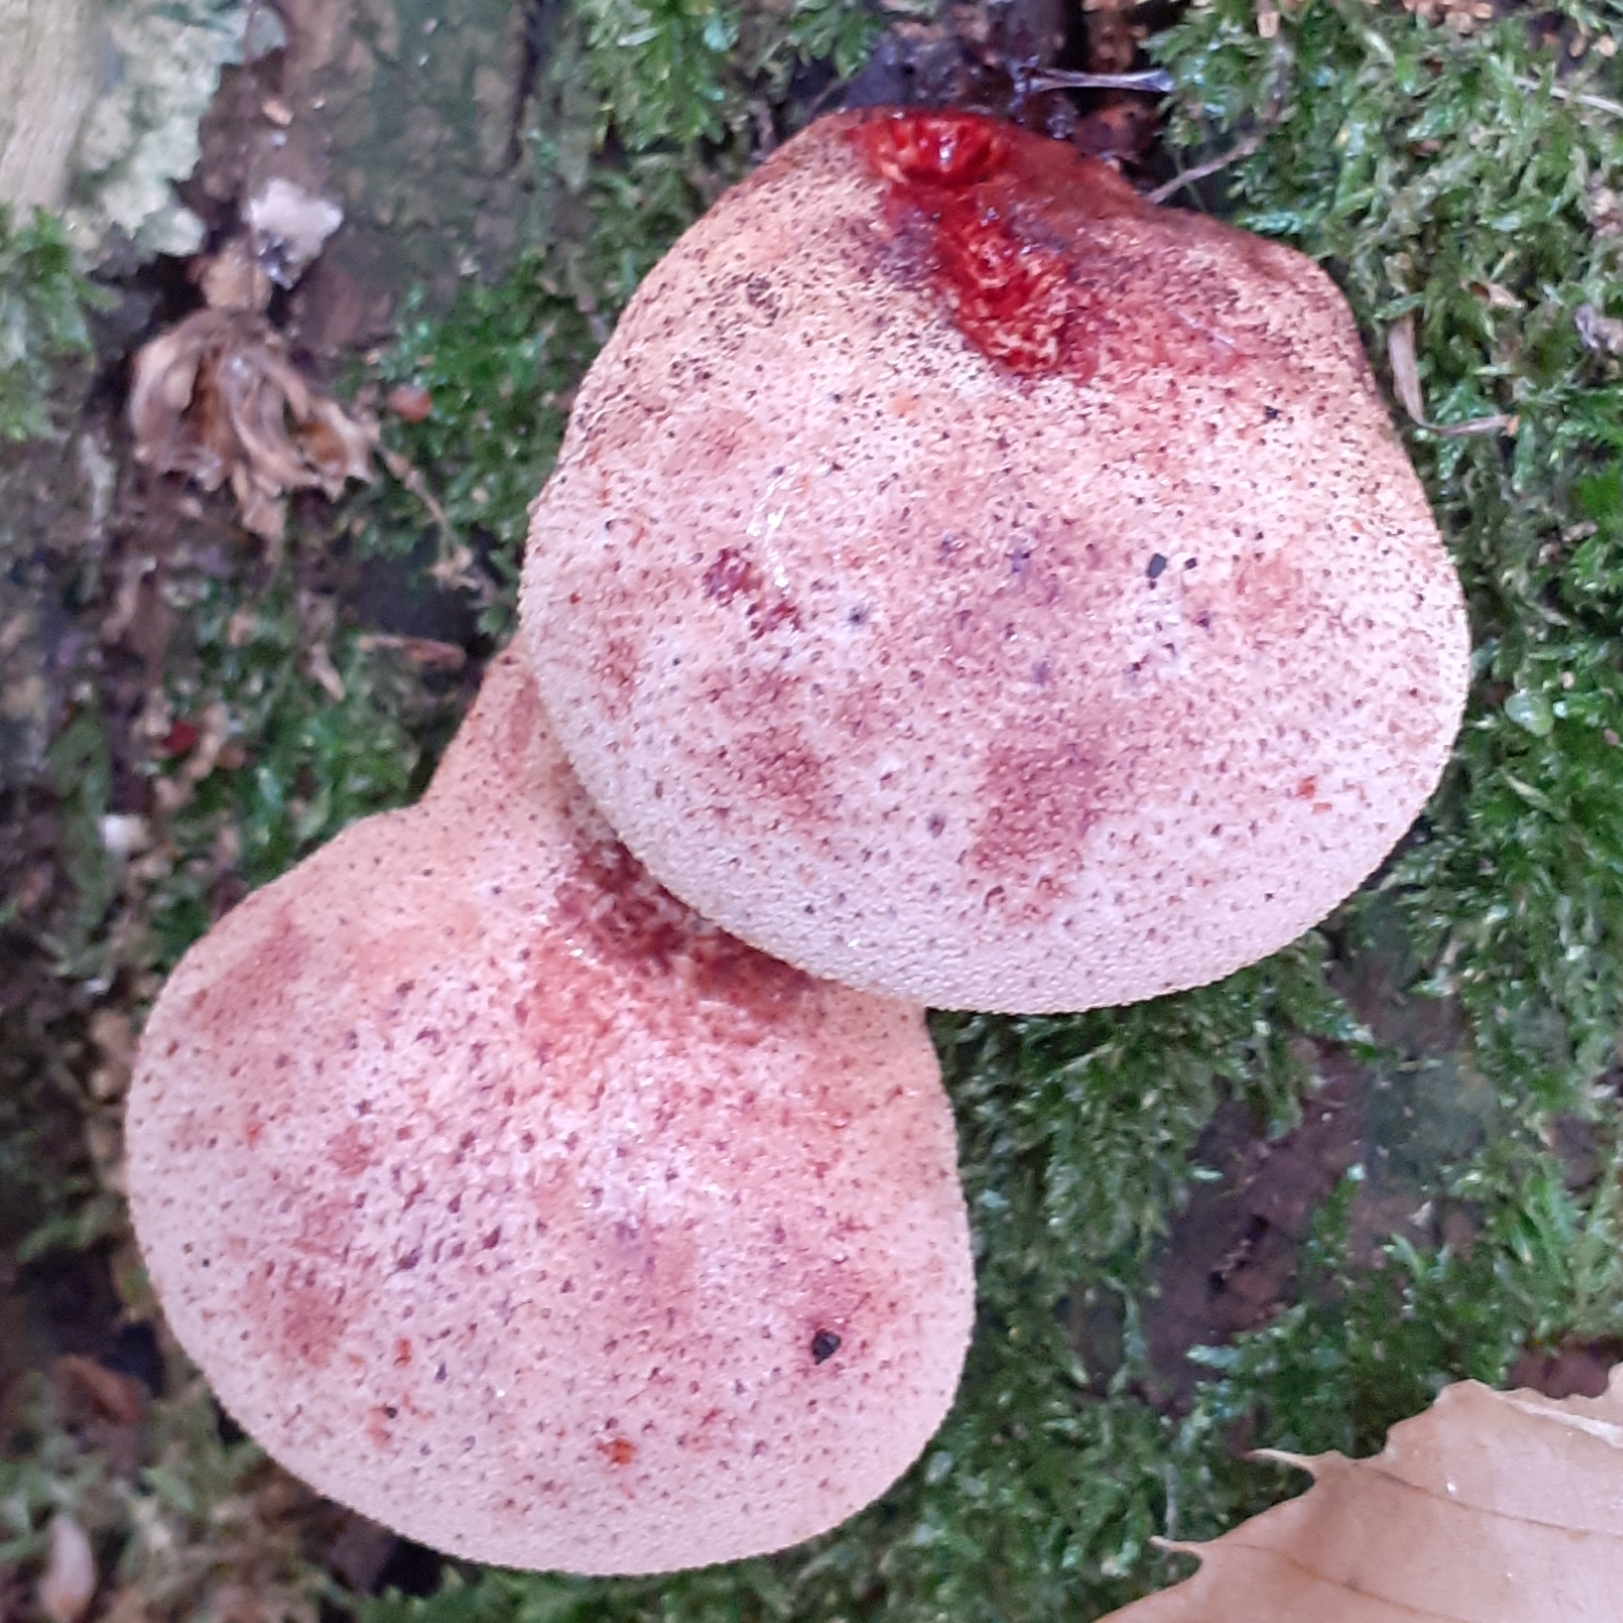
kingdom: Fungi
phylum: Basidiomycota
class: Agaricomycetes
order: Agaricales
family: Fistulinaceae
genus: Fistulina
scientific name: Fistulina hepatica
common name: Beef-steak fungus
